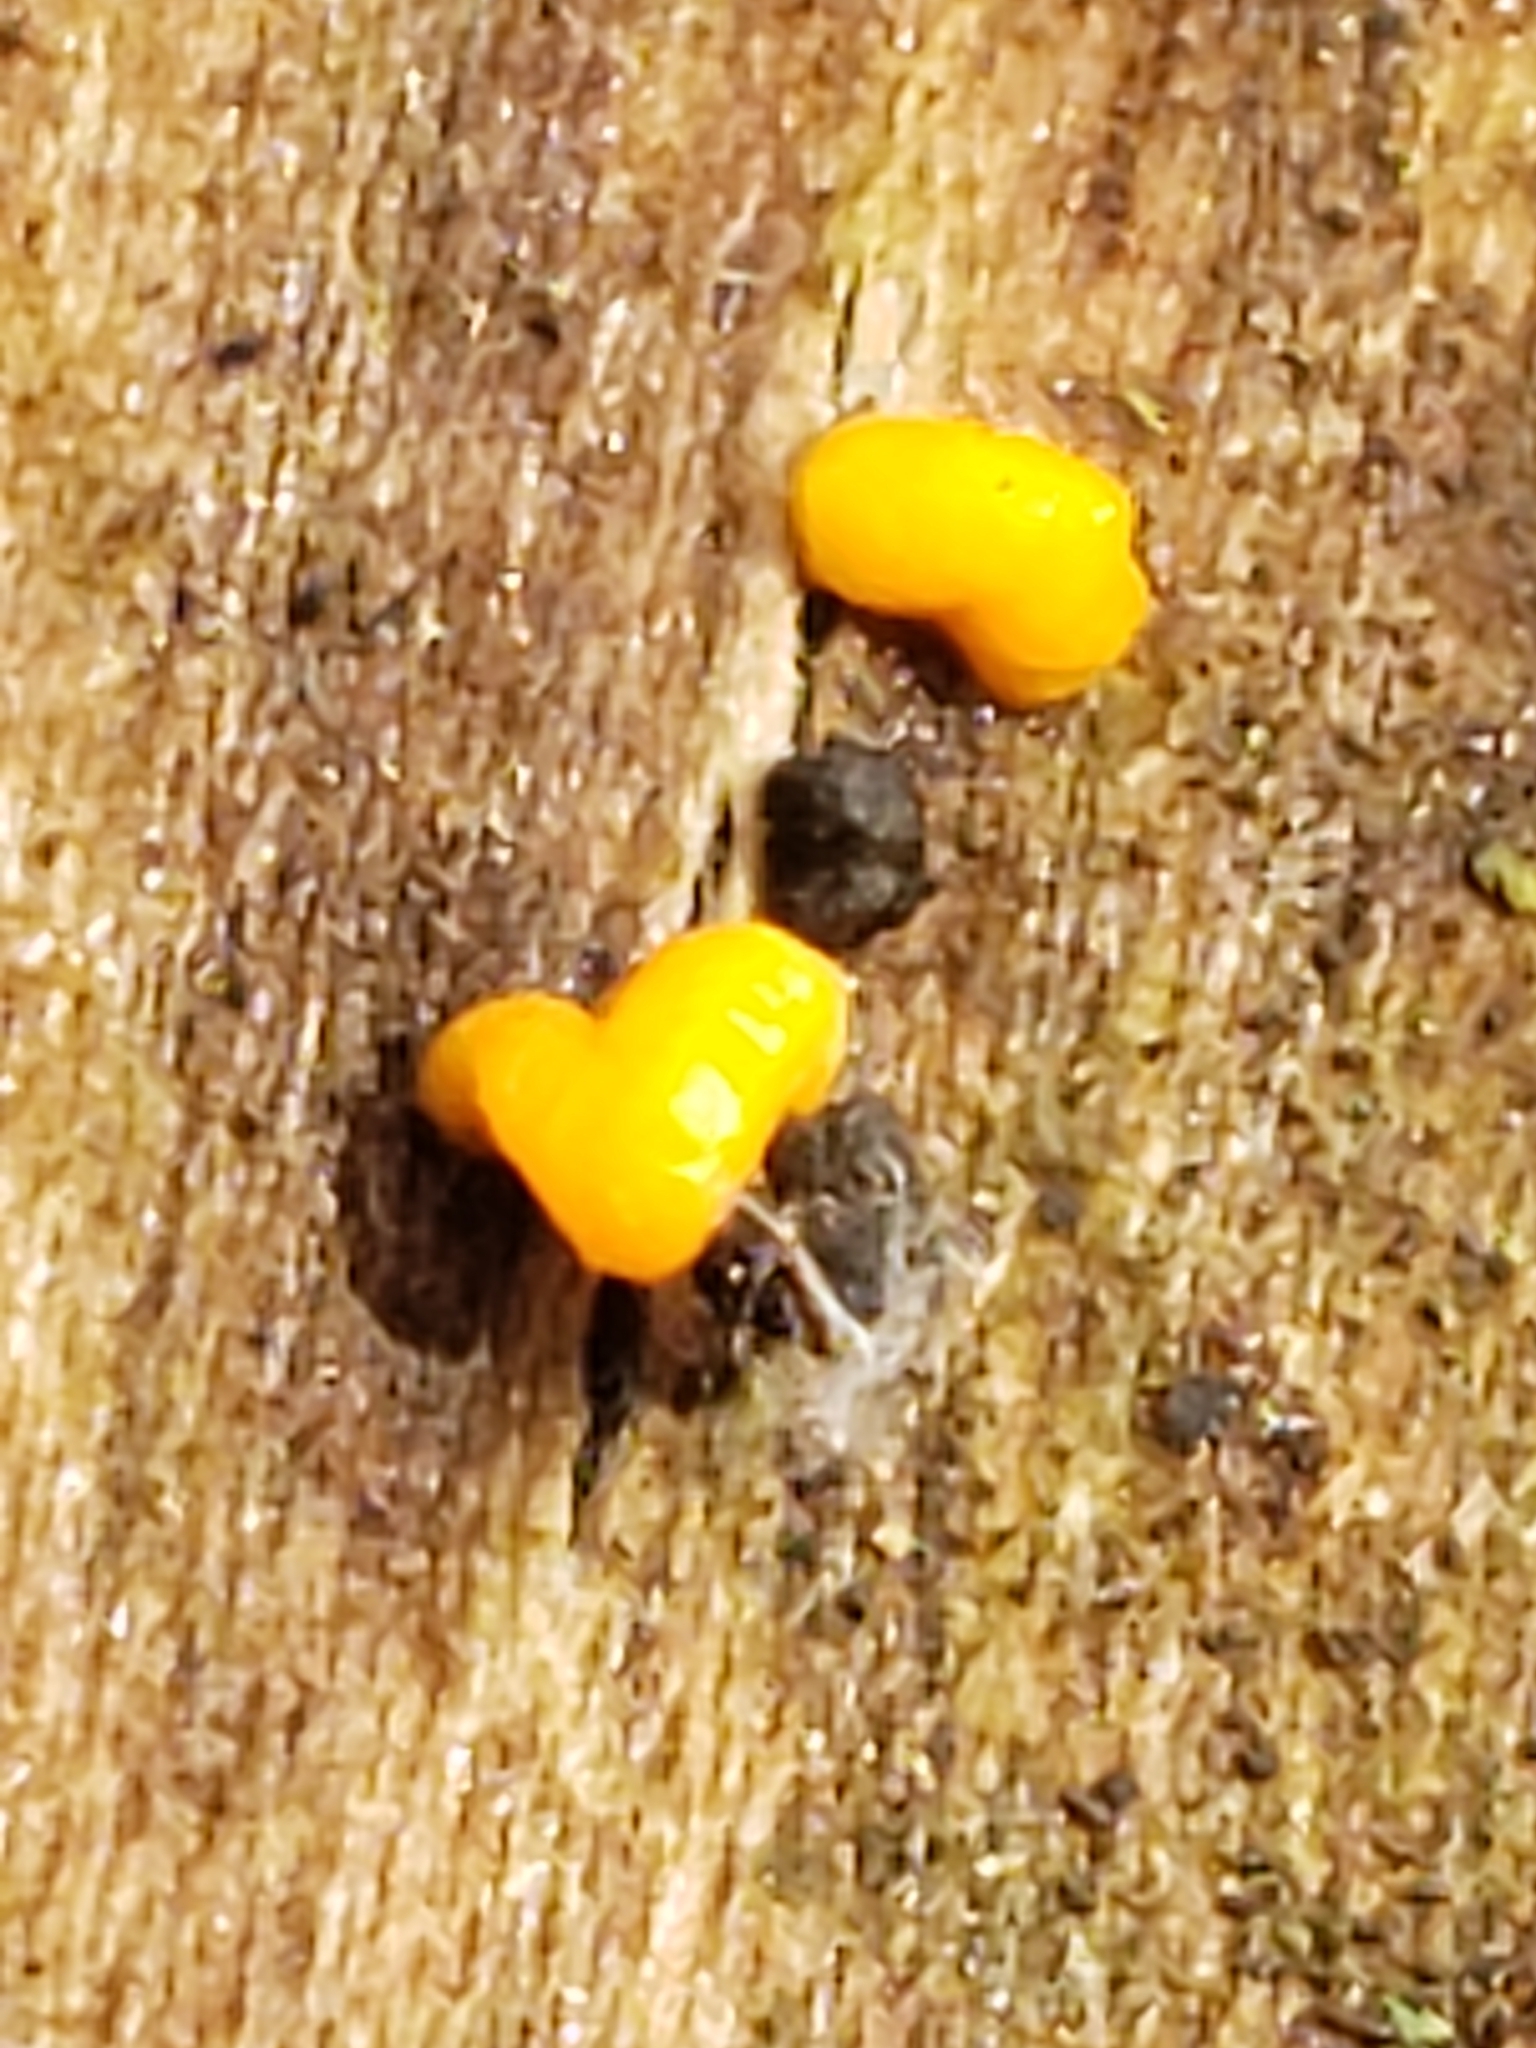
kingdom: Fungi
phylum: Basidiomycota
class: Dacrymycetes
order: Dacrymycetales
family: Dacrymycetaceae
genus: Dacrymyces
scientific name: Dacrymyces stillatus
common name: Common jelly spot
